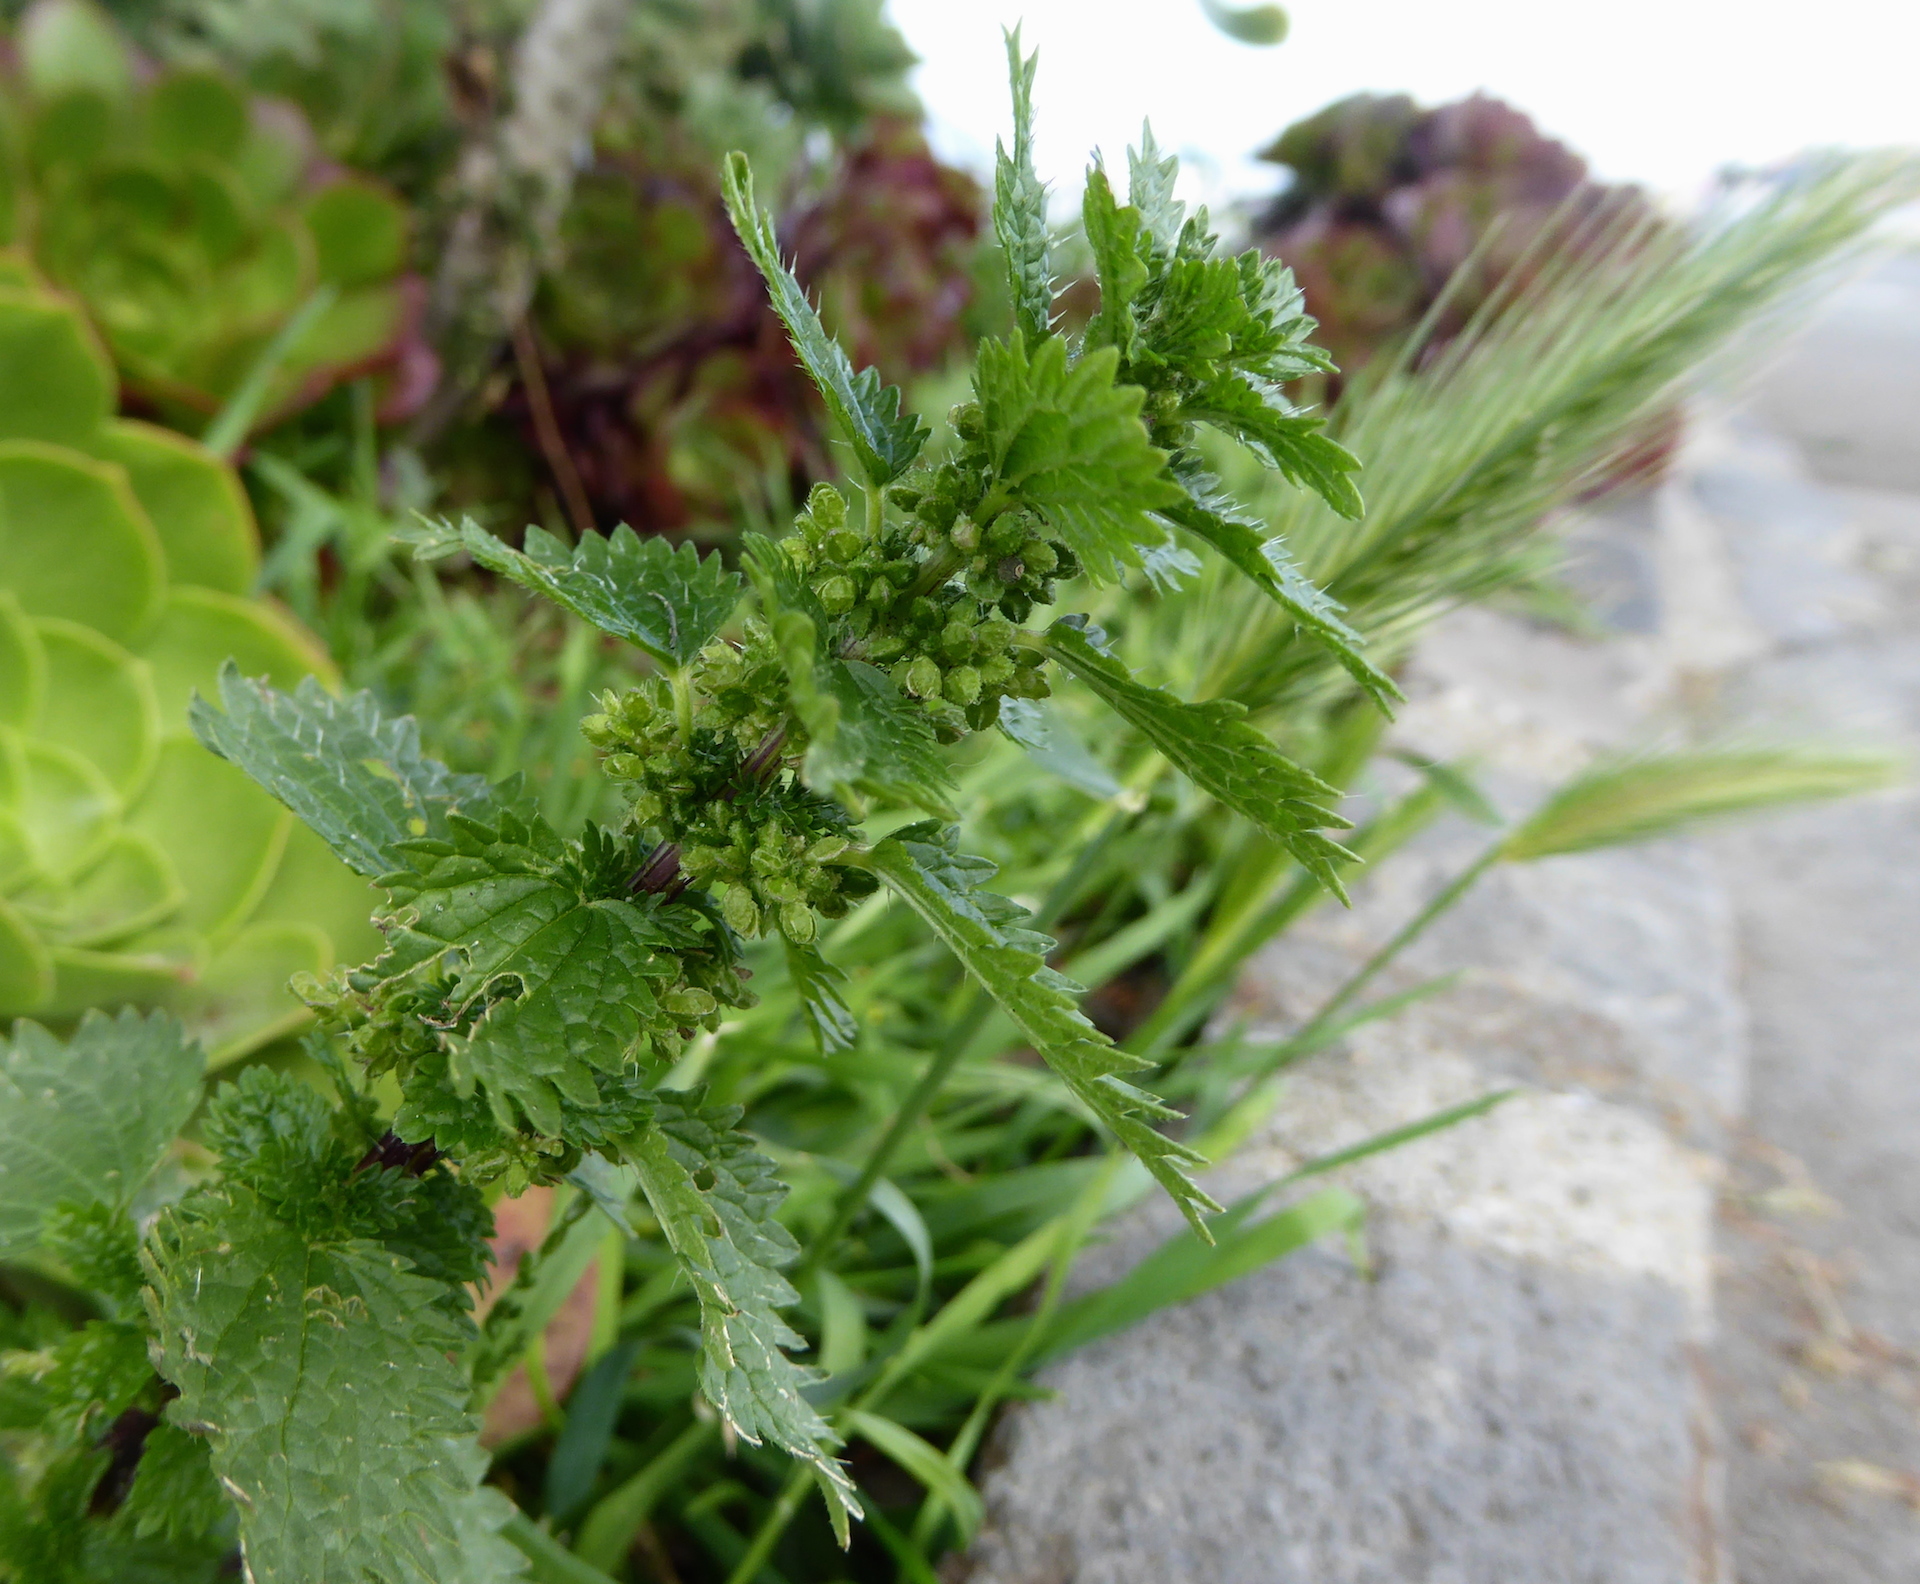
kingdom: Plantae
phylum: Tracheophyta
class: Magnoliopsida
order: Rosales
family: Urticaceae
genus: Urtica
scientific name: Urtica urens
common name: Dwarf nettle
